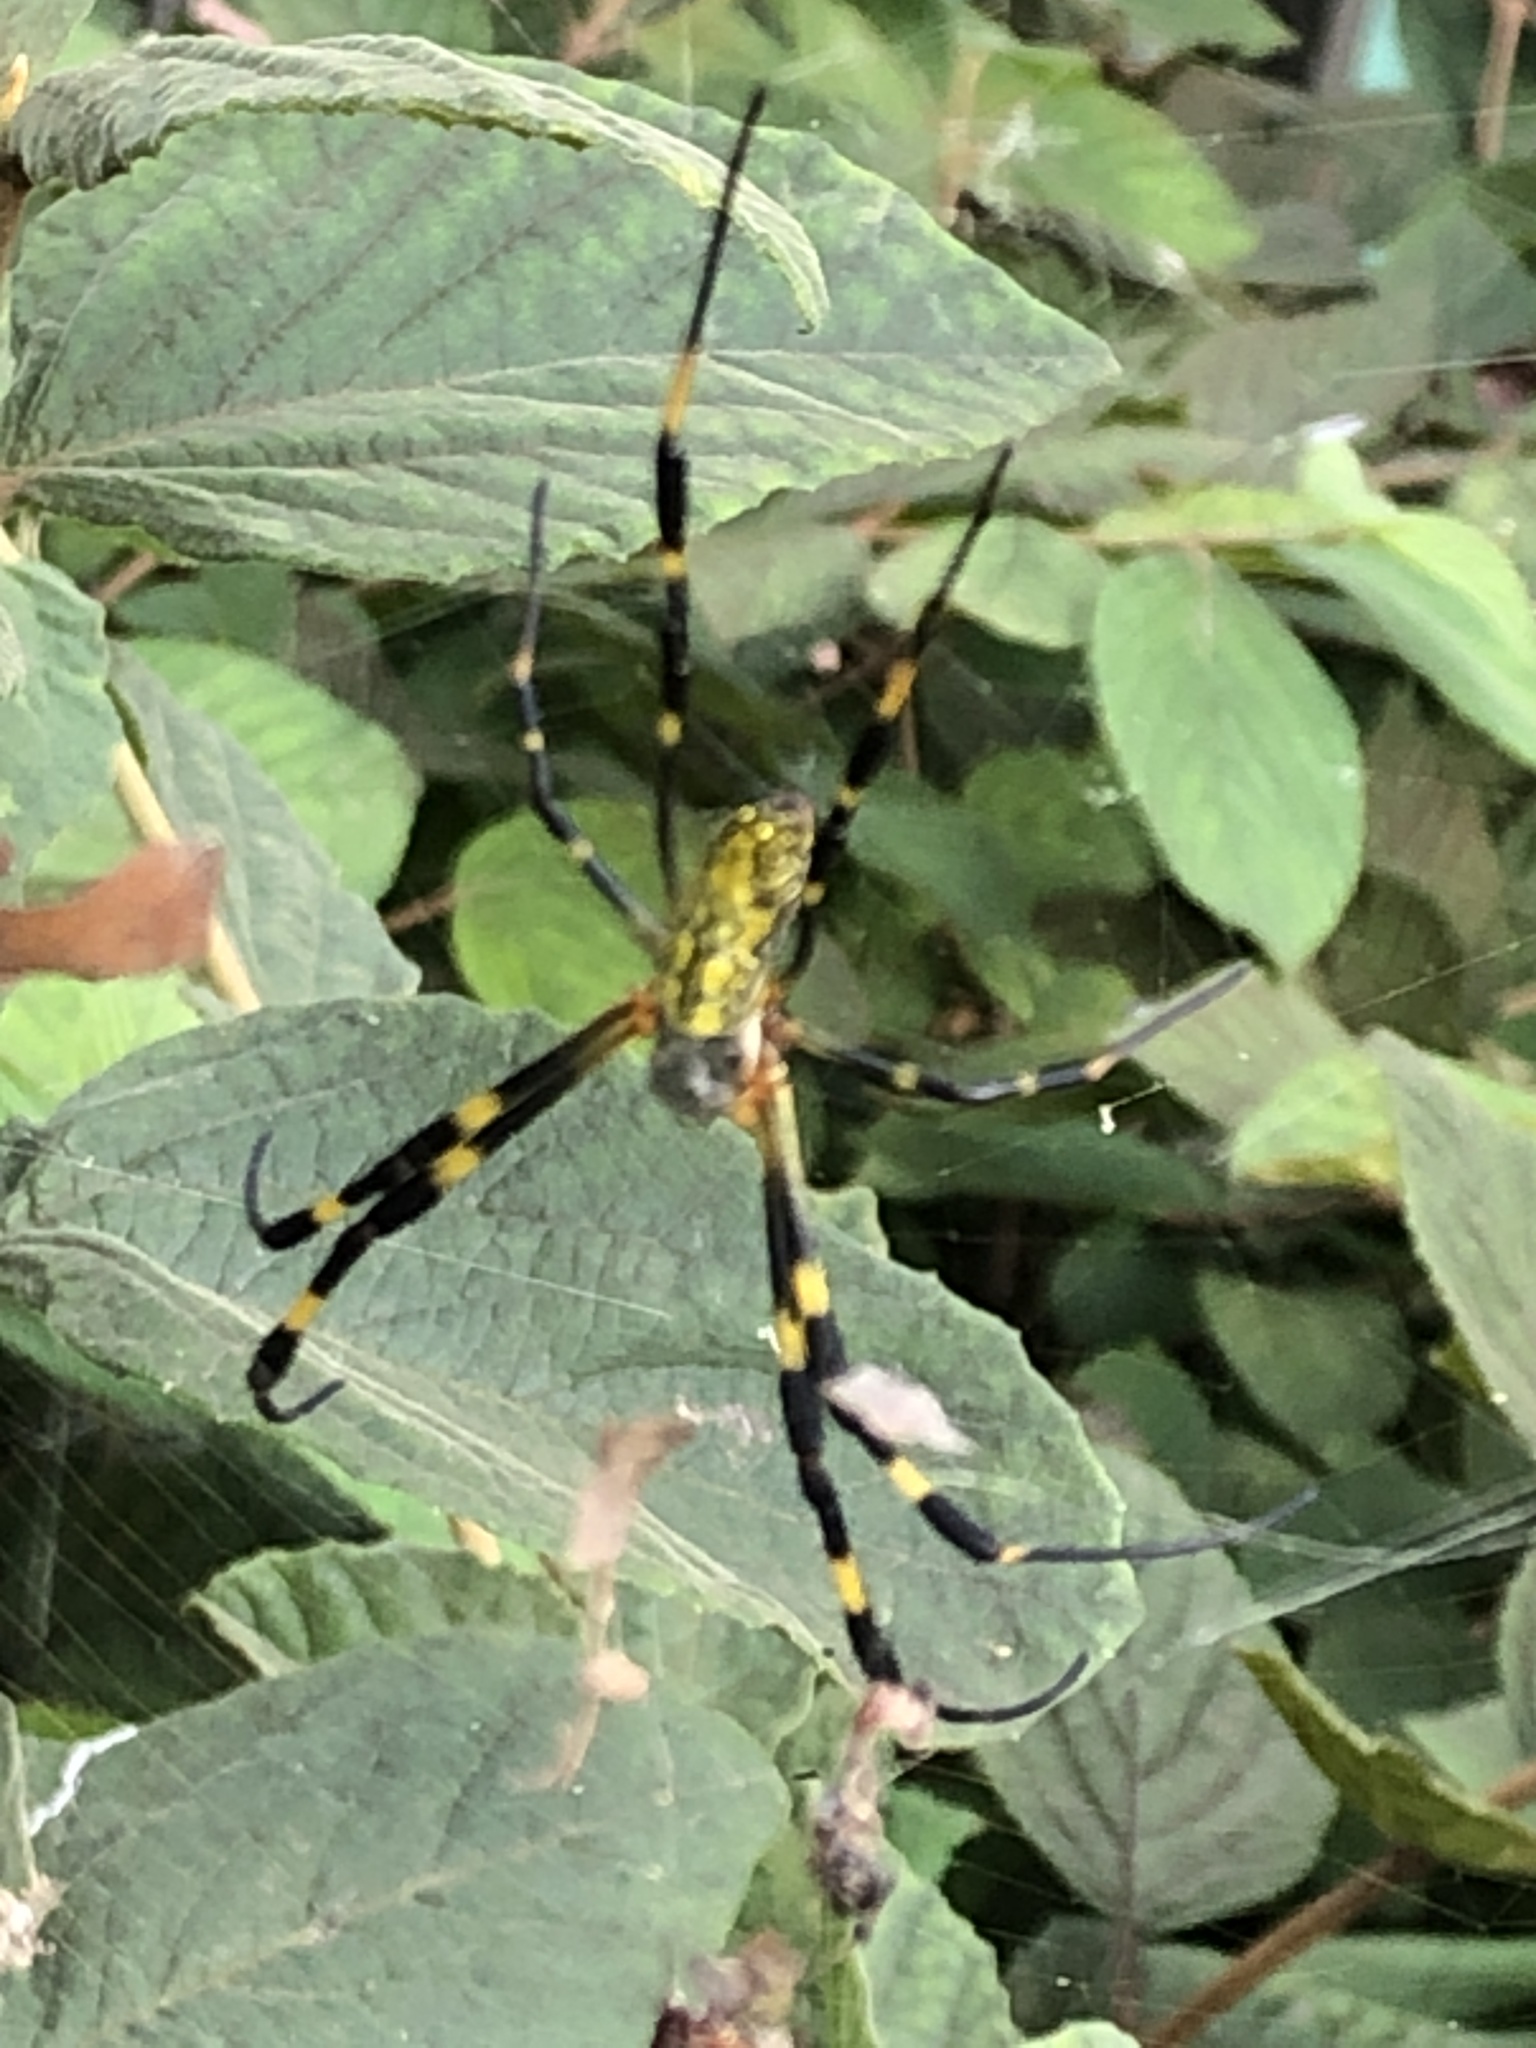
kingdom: Animalia
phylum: Arthropoda
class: Arachnida
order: Araneae
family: Araneidae
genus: Trichonephila
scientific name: Trichonephila clavata
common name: Jorō spider
